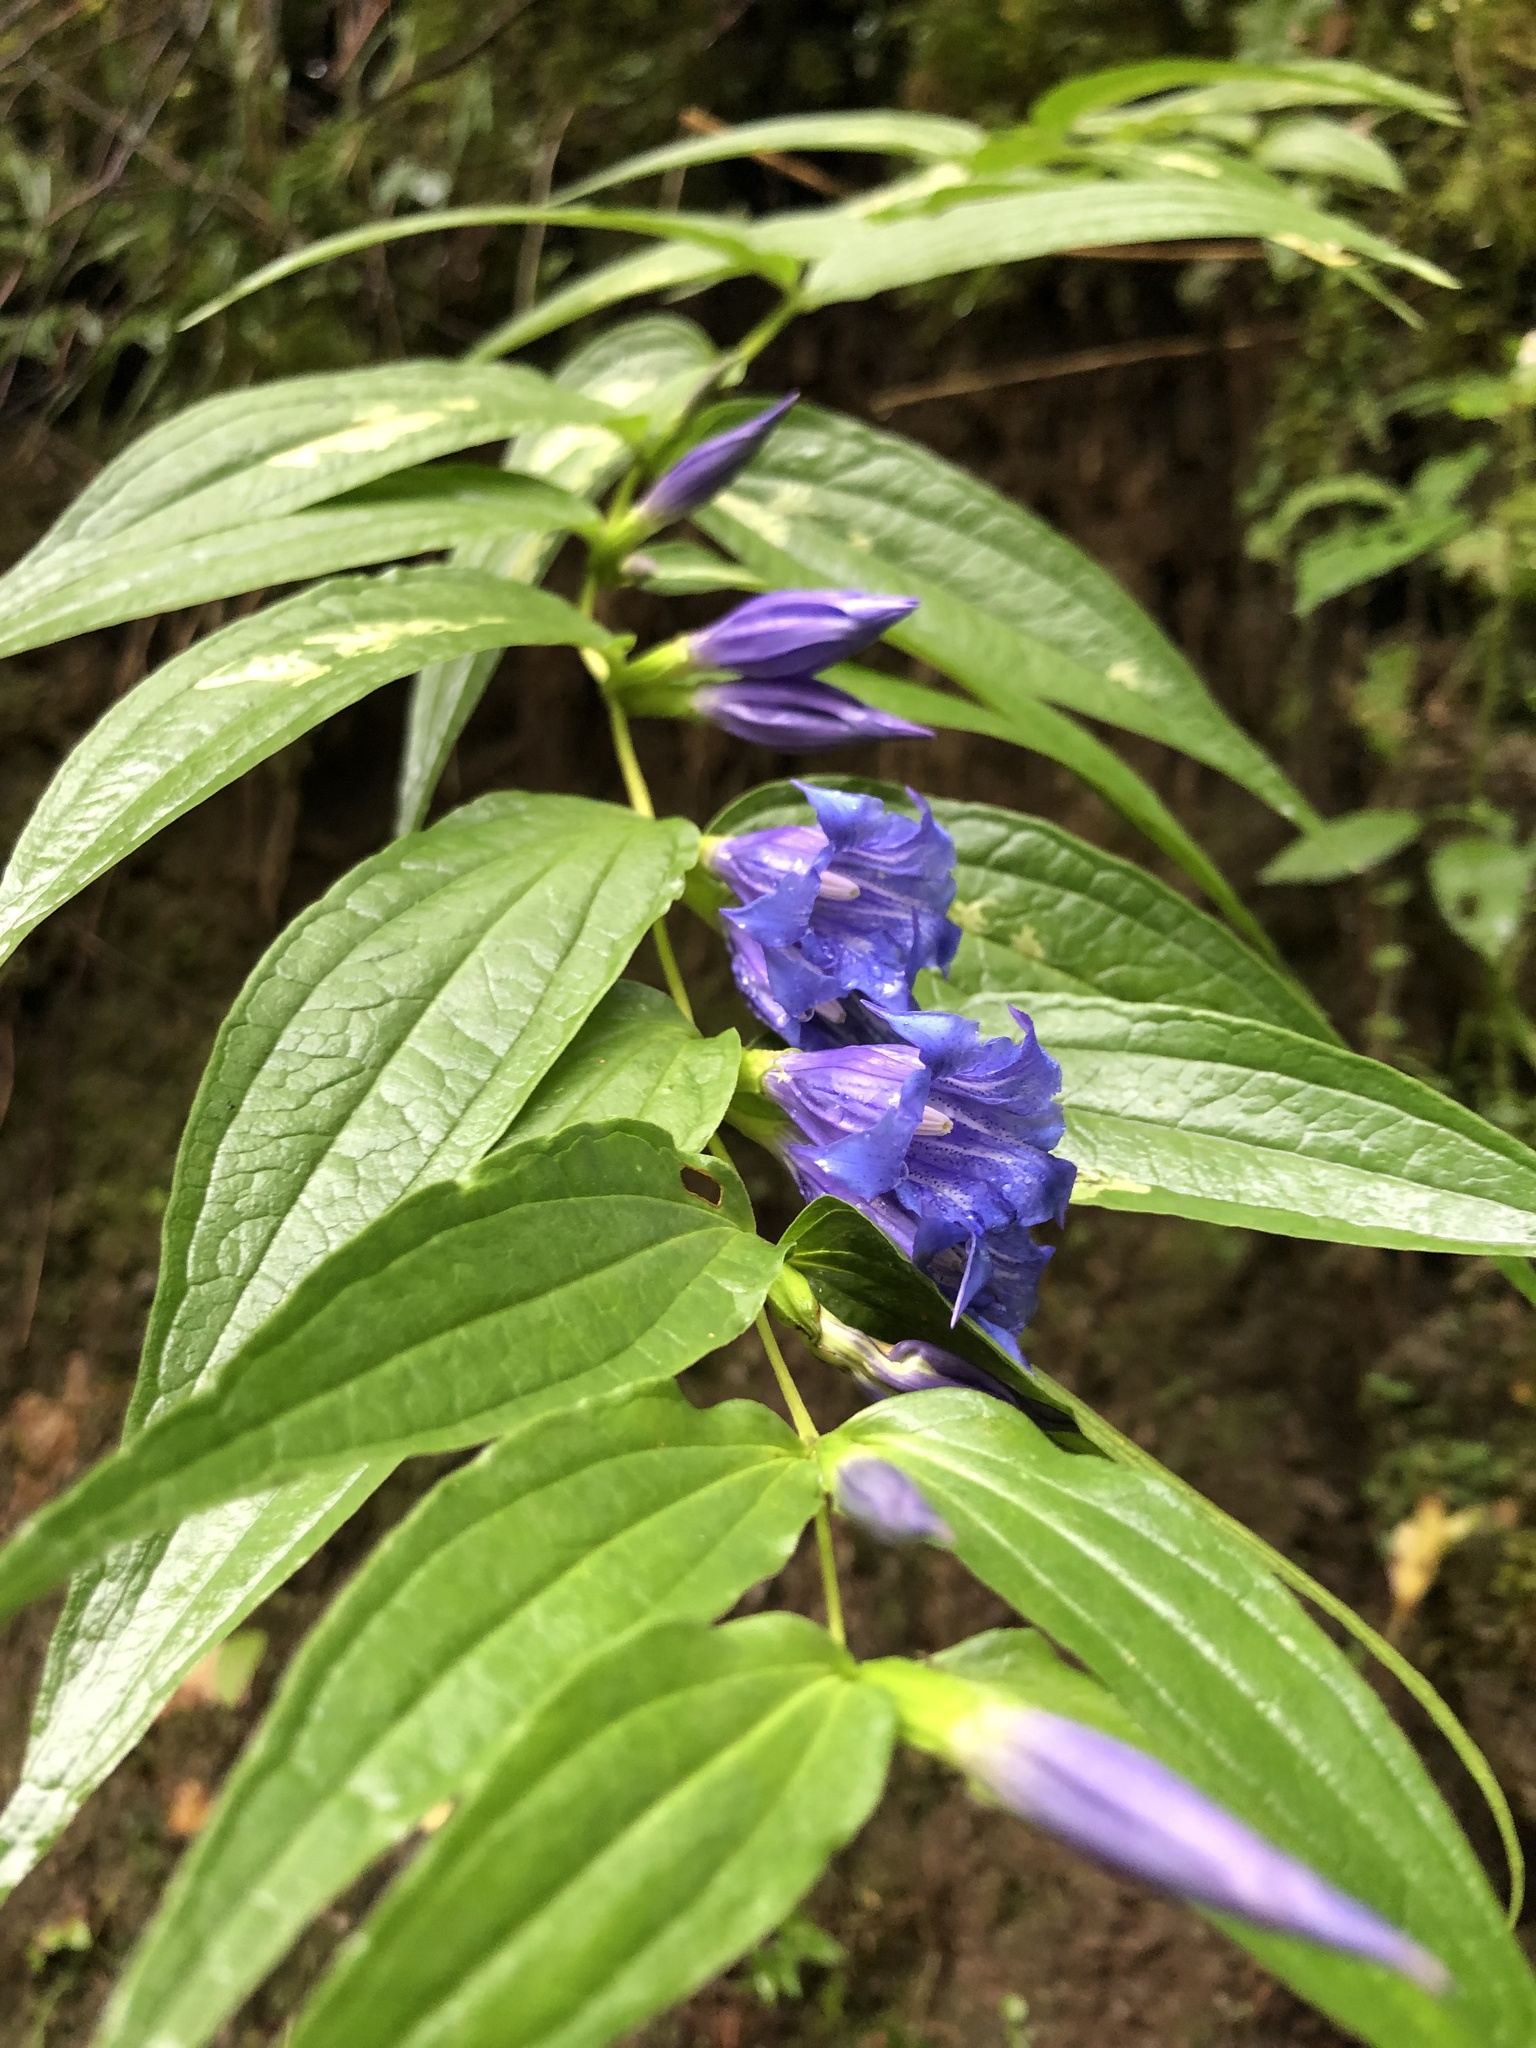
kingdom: Plantae
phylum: Tracheophyta
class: Magnoliopsida
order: Gentianales
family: Gentianaceae
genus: Gentiana
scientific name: Gentiana asclepiadea
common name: Willow gentian
